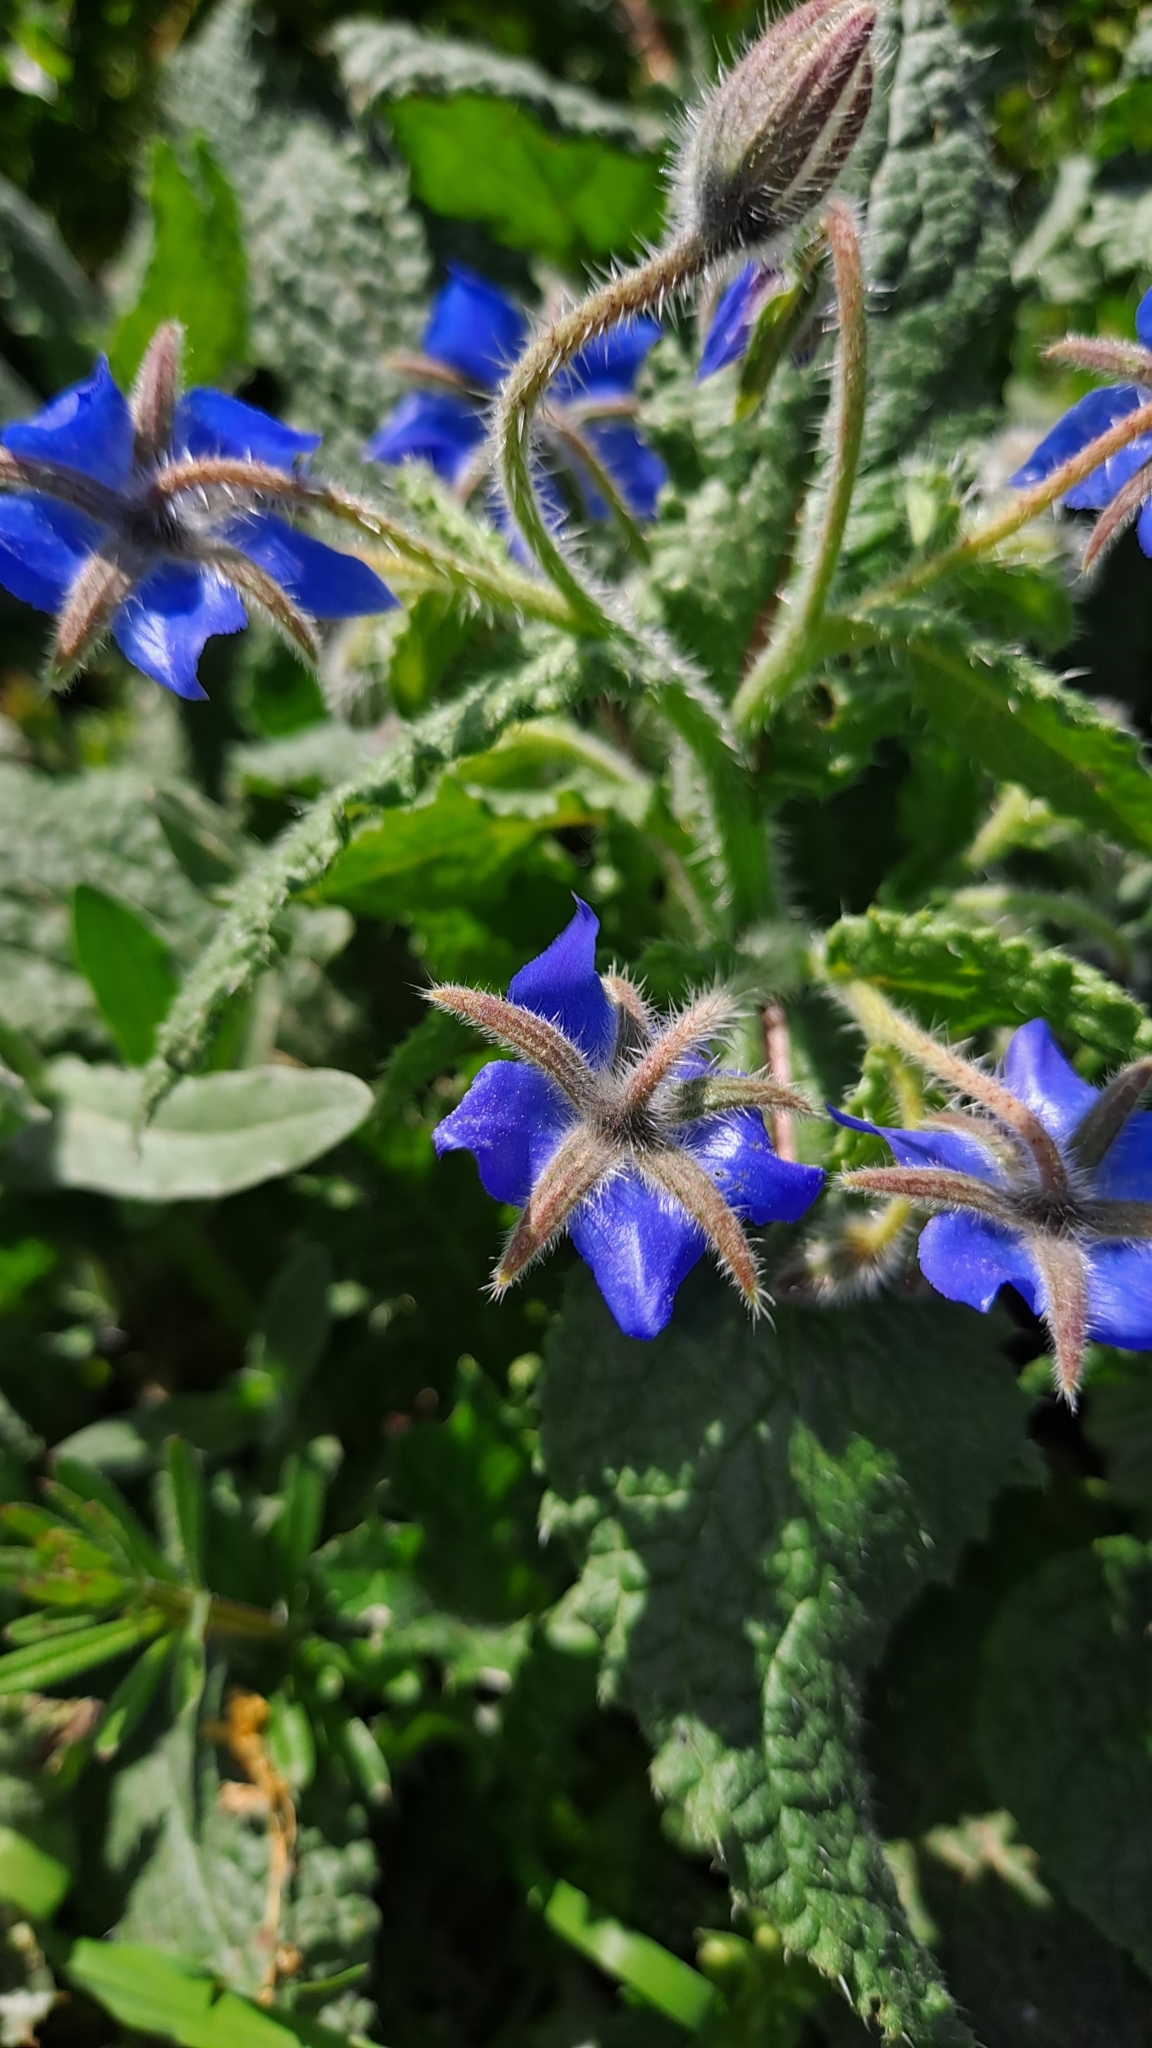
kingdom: Plantae
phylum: Tracheophyta
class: Magnoliopsida
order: Boraginales
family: Boraginaceae
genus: Borago
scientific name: Borago officinalis
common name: Borage
